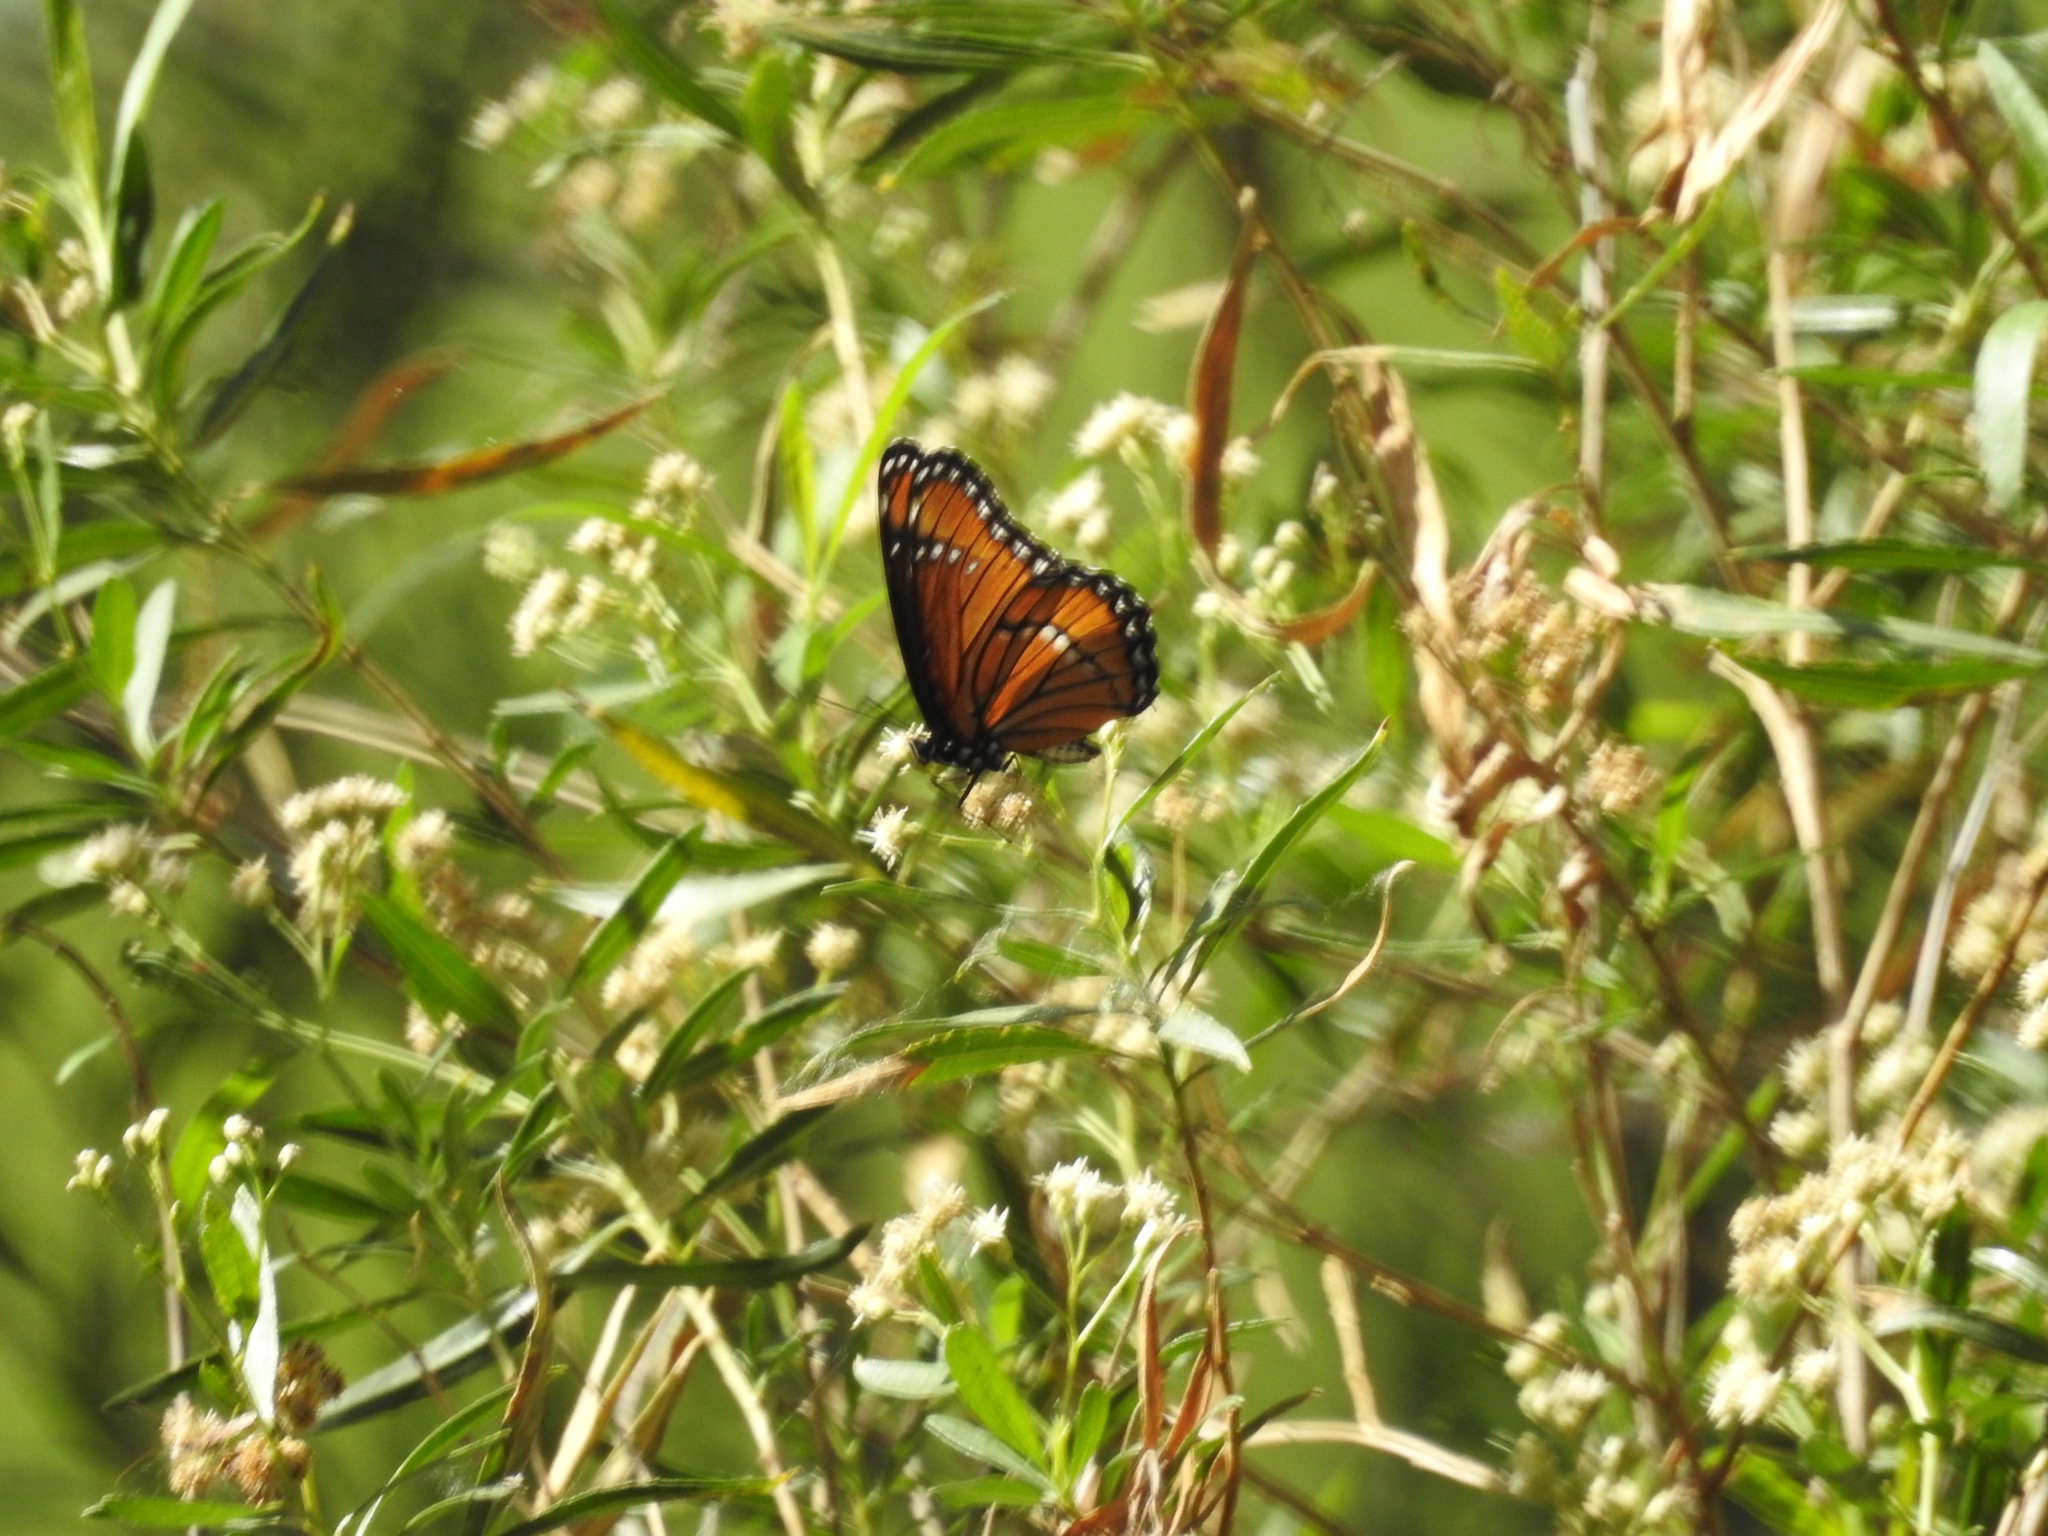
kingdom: Animalia
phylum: Arthropoda
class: Insecta
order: Lepidoptera
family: Nymphalidae
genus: Limenitis
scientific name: Limenitis archippus
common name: Viceroy
